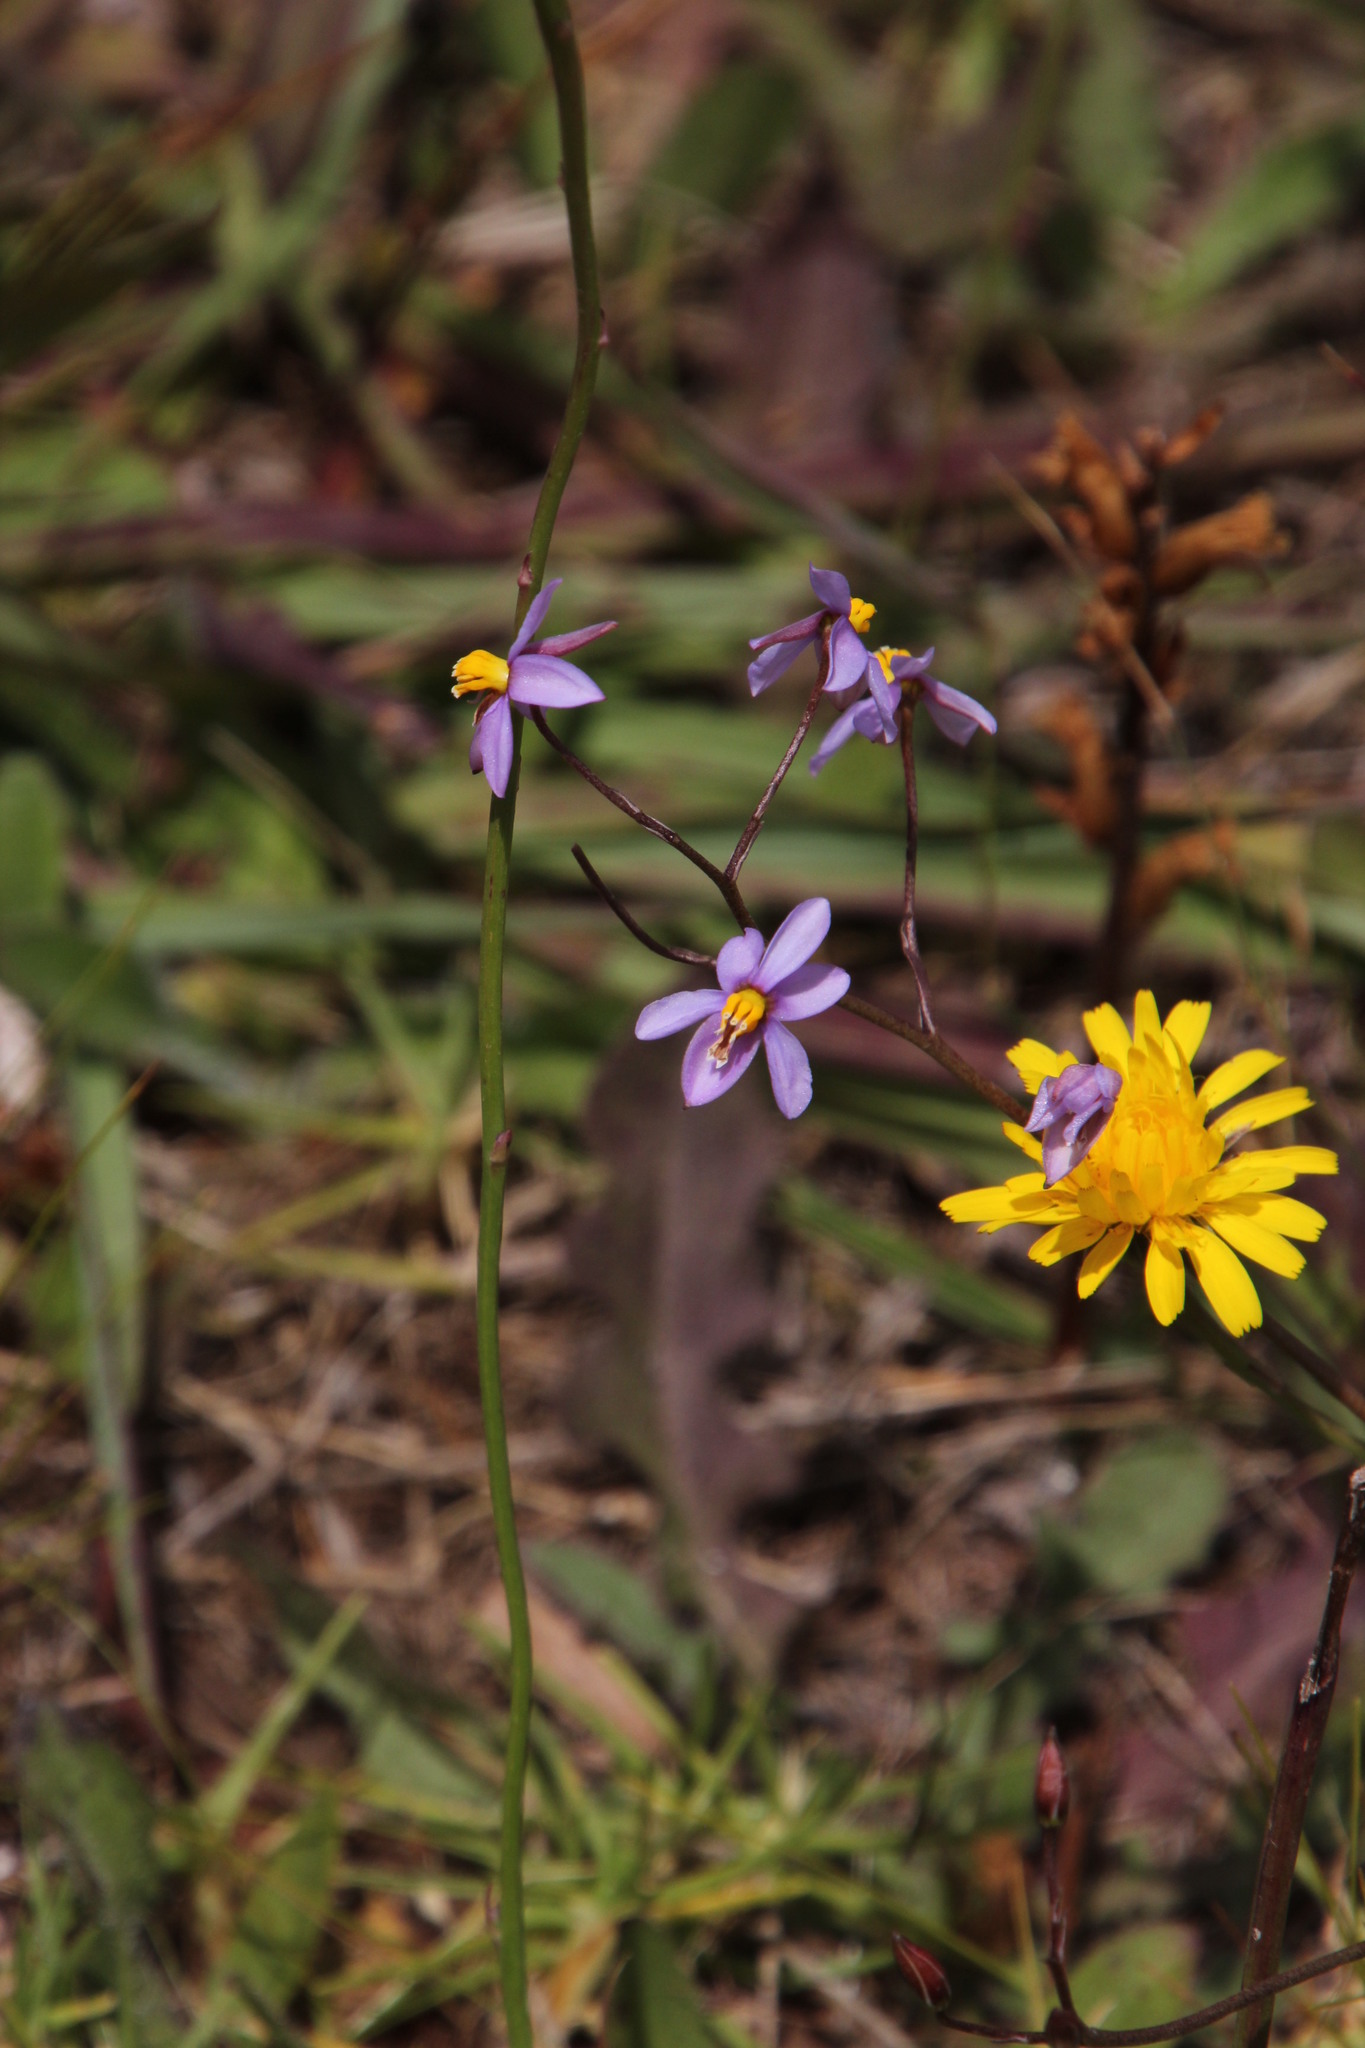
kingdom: Plantae
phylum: Tracheophyta
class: Liliopsida
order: Asparagales
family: Tecophilaeaceae
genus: Cyanella
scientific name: Cyanella hyacinthoides
